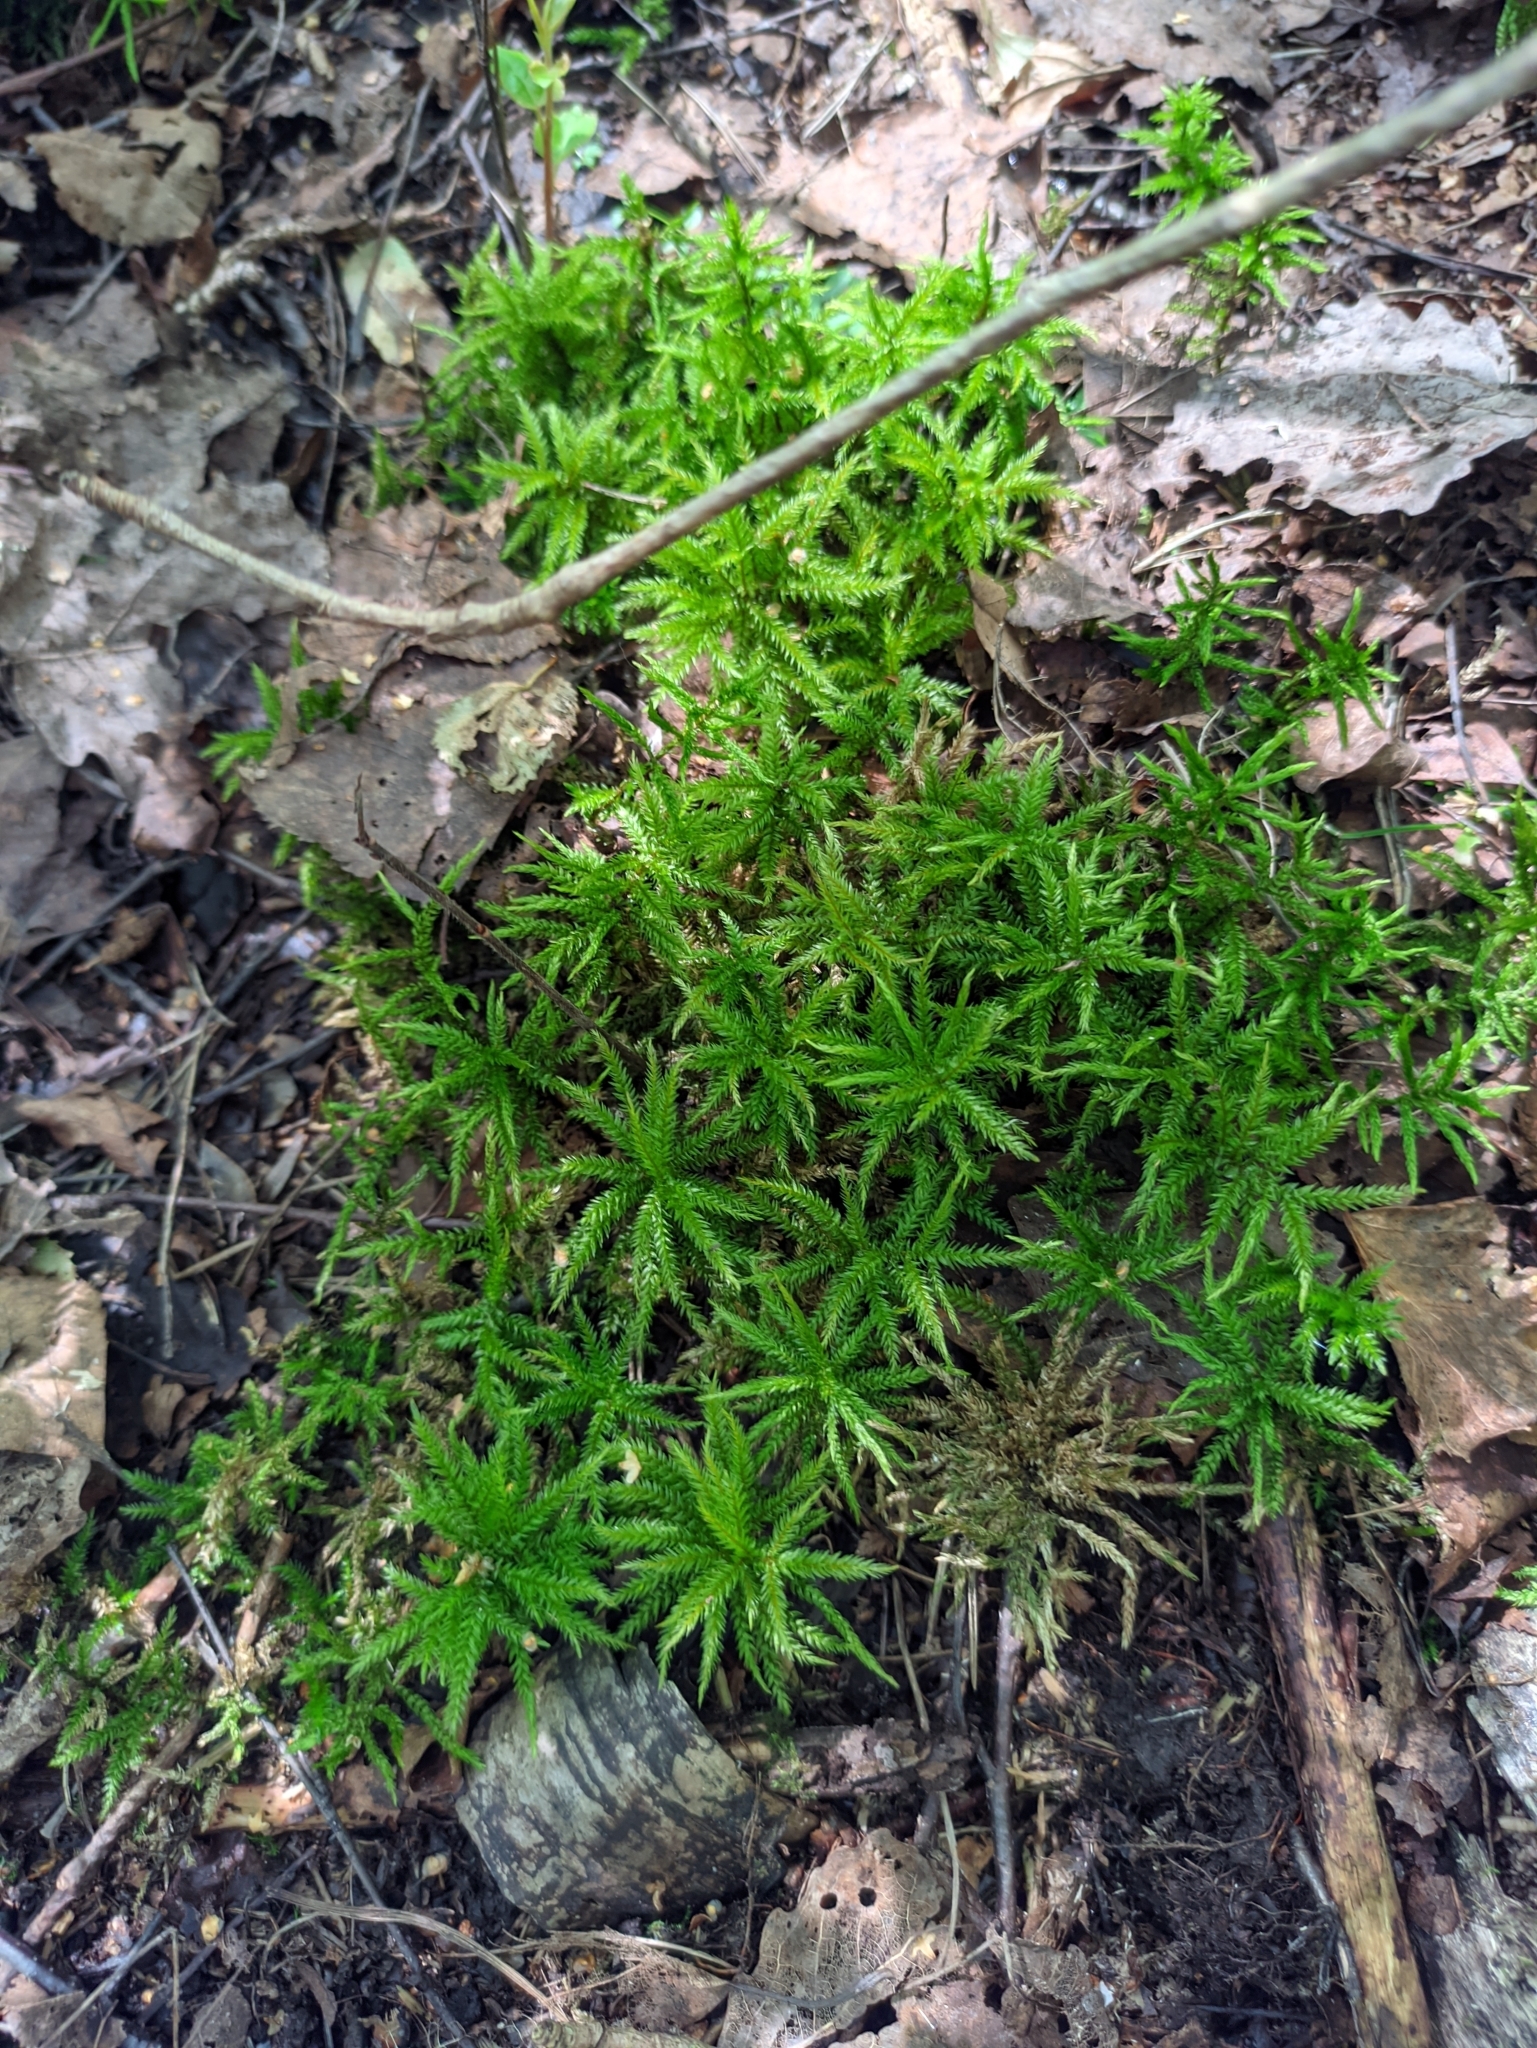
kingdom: Plantae
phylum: Bryophyta
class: Bryopsida
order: Hypnales
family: Climaciaceae
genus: Climacium
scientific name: Climacium dendroides
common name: Northern tree moss
